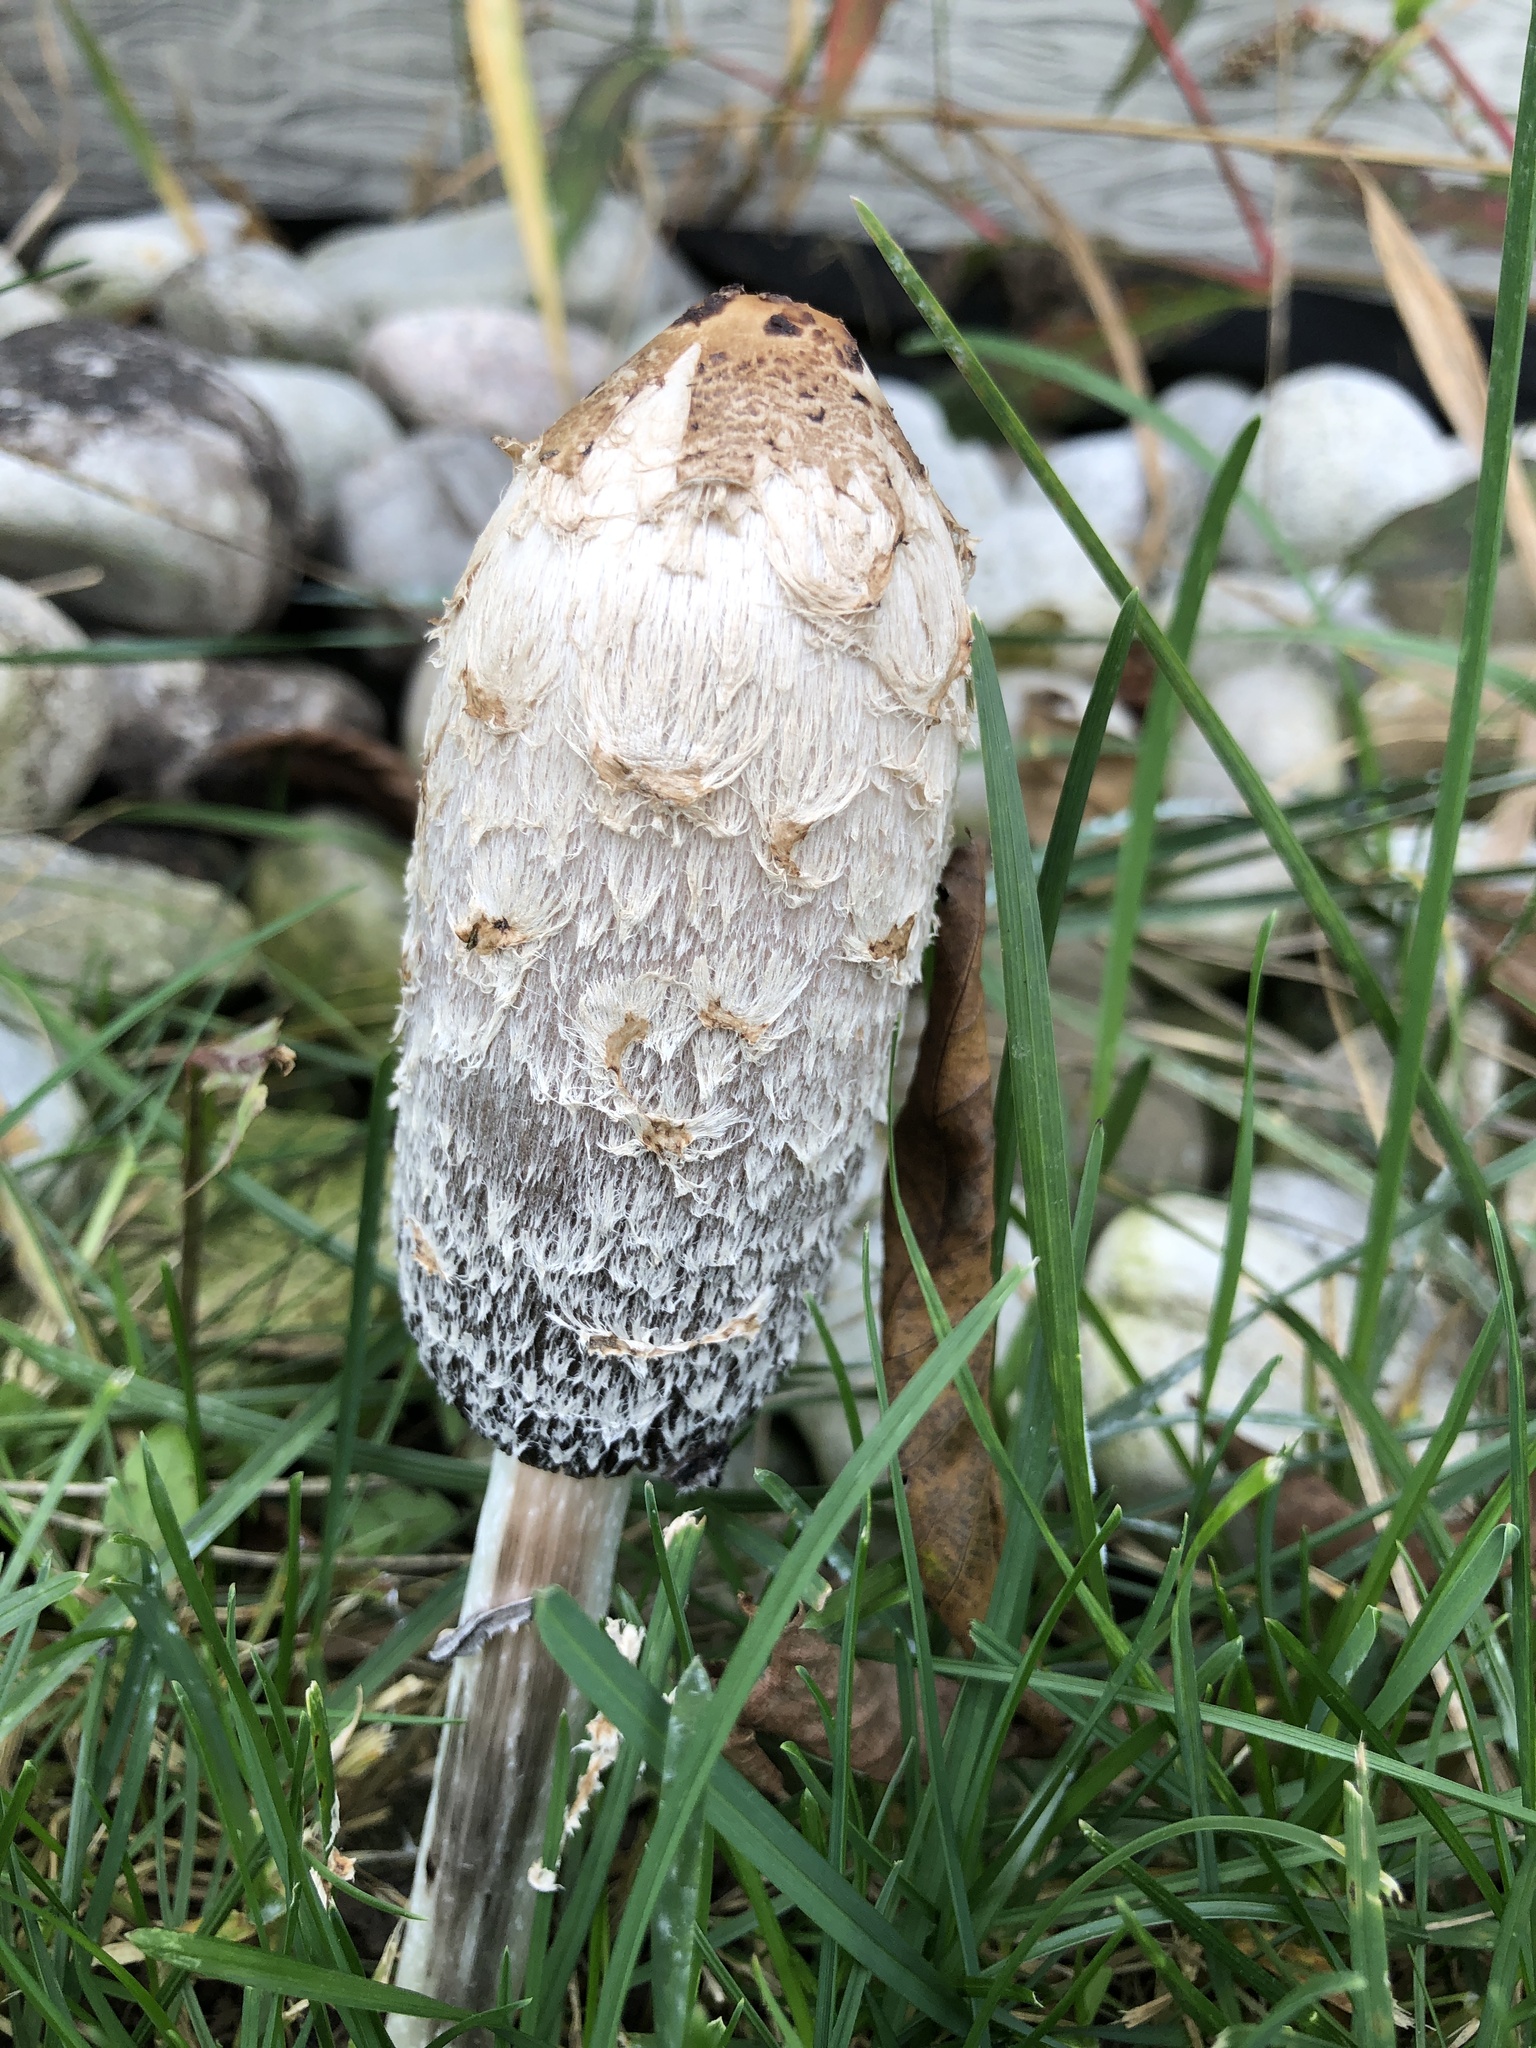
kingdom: Fungi
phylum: Basidiomycota
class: Agaricomycetes
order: Agaricales
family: Agaricaceae
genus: Coprinus
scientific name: Coprinus comatus
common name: Lawyer's wig
